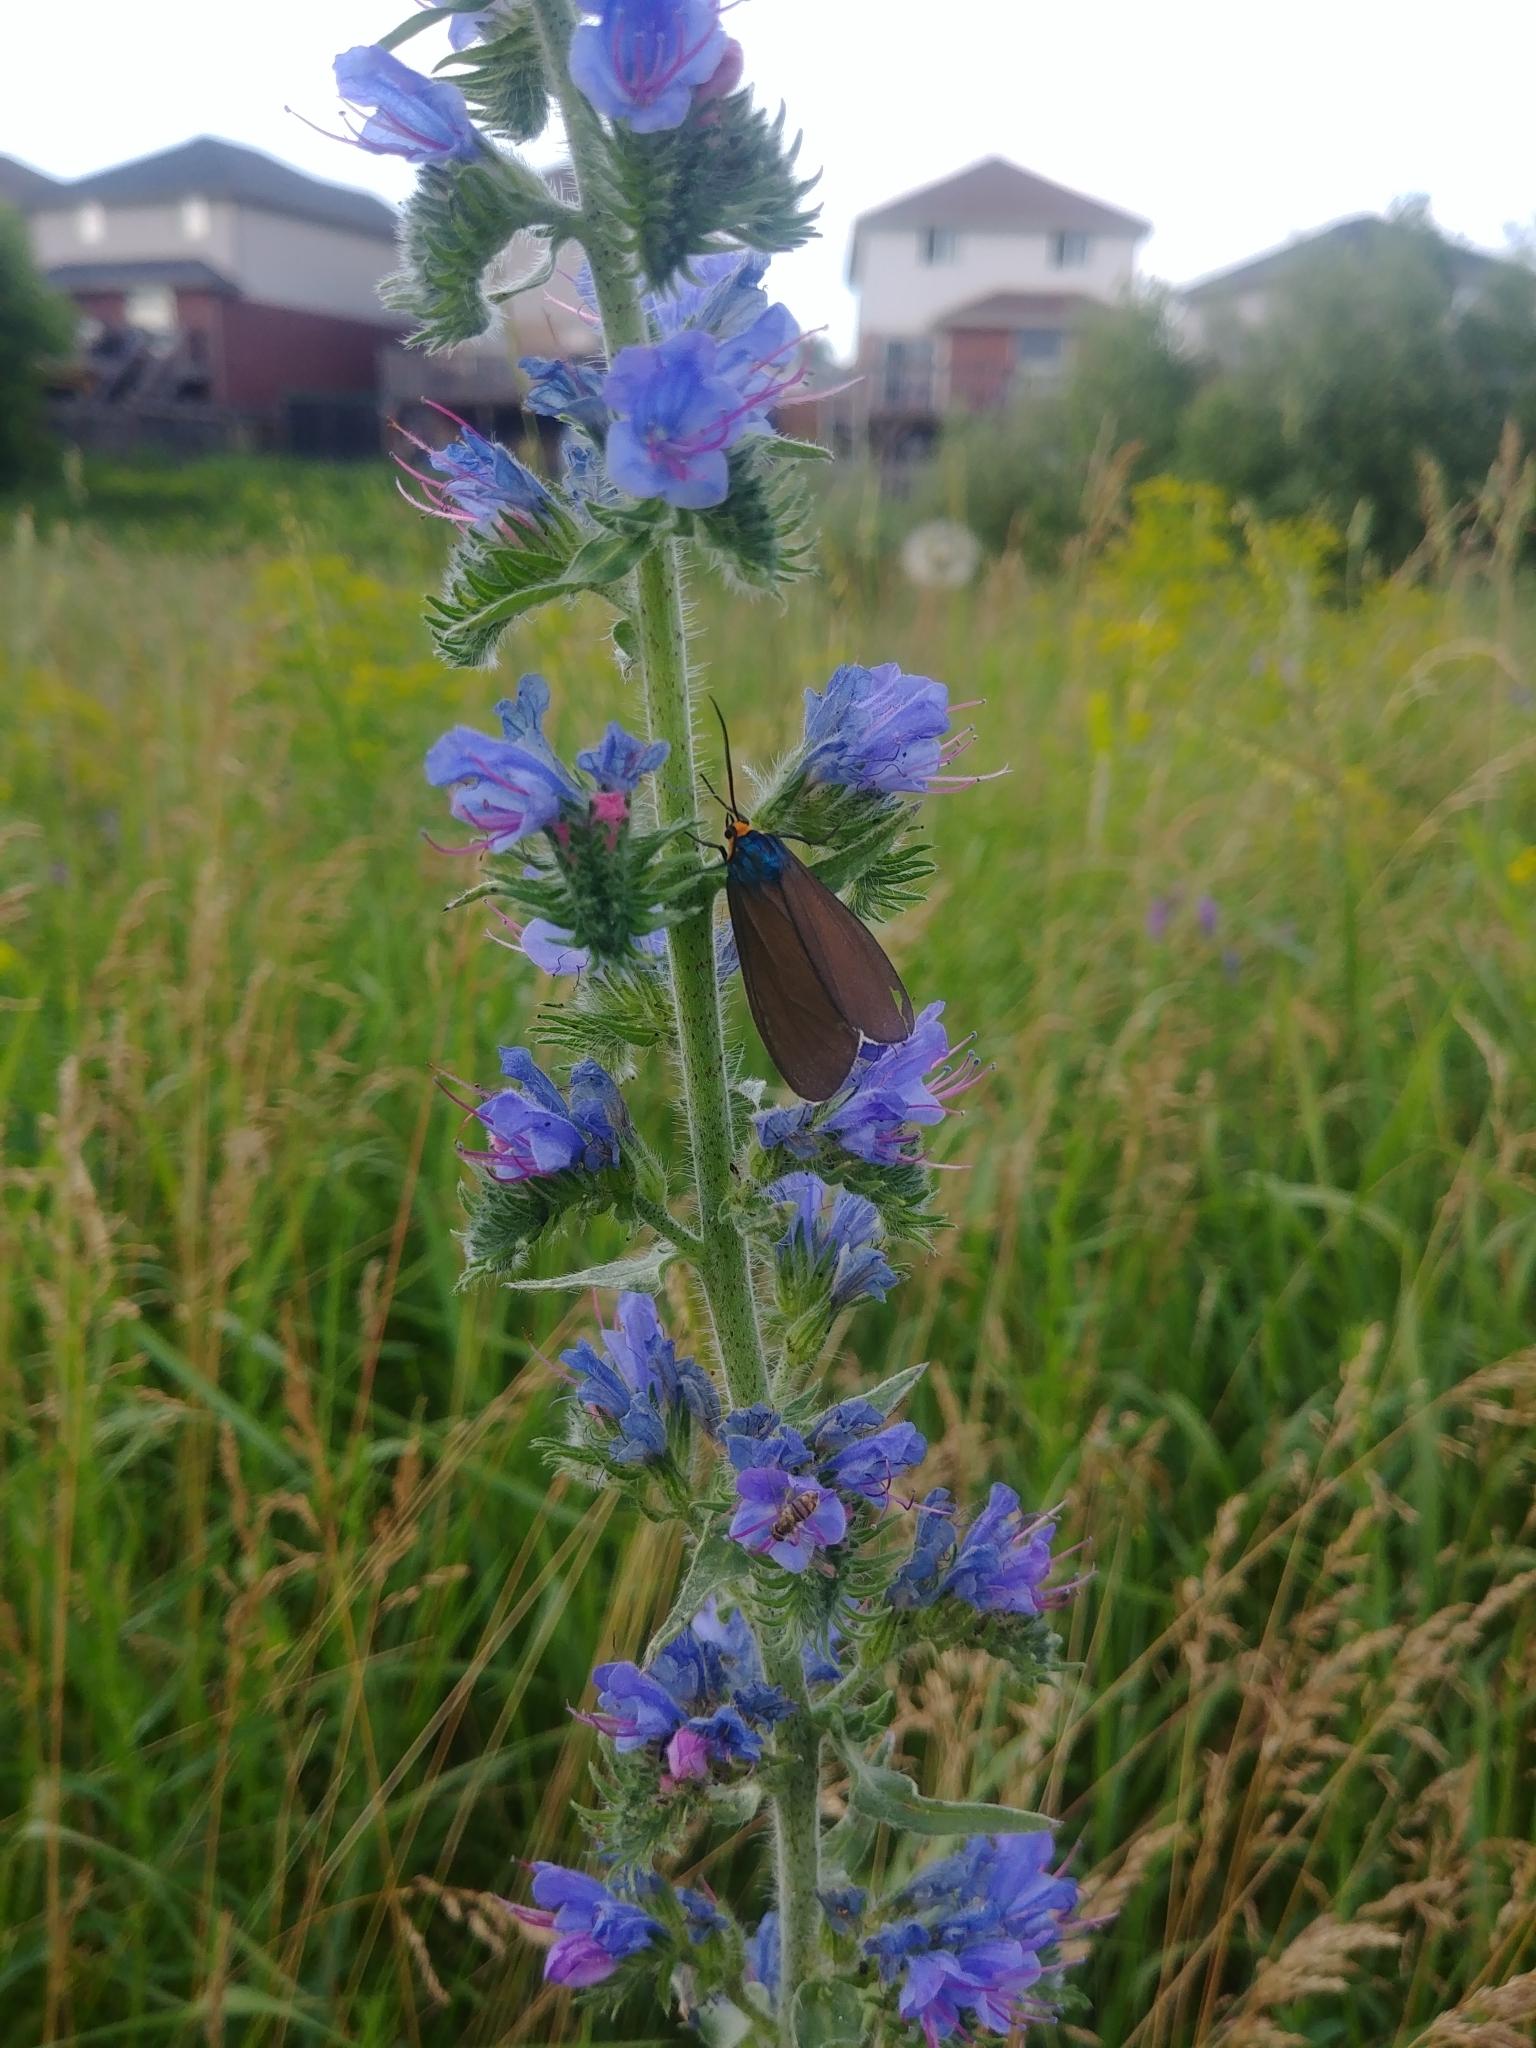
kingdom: Animalia
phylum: Arthropoda
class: Insecta
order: Lepidoptera
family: Erebidae
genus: Ctenucha
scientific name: Ctenucha virginica
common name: Virginia ctenucha moth
